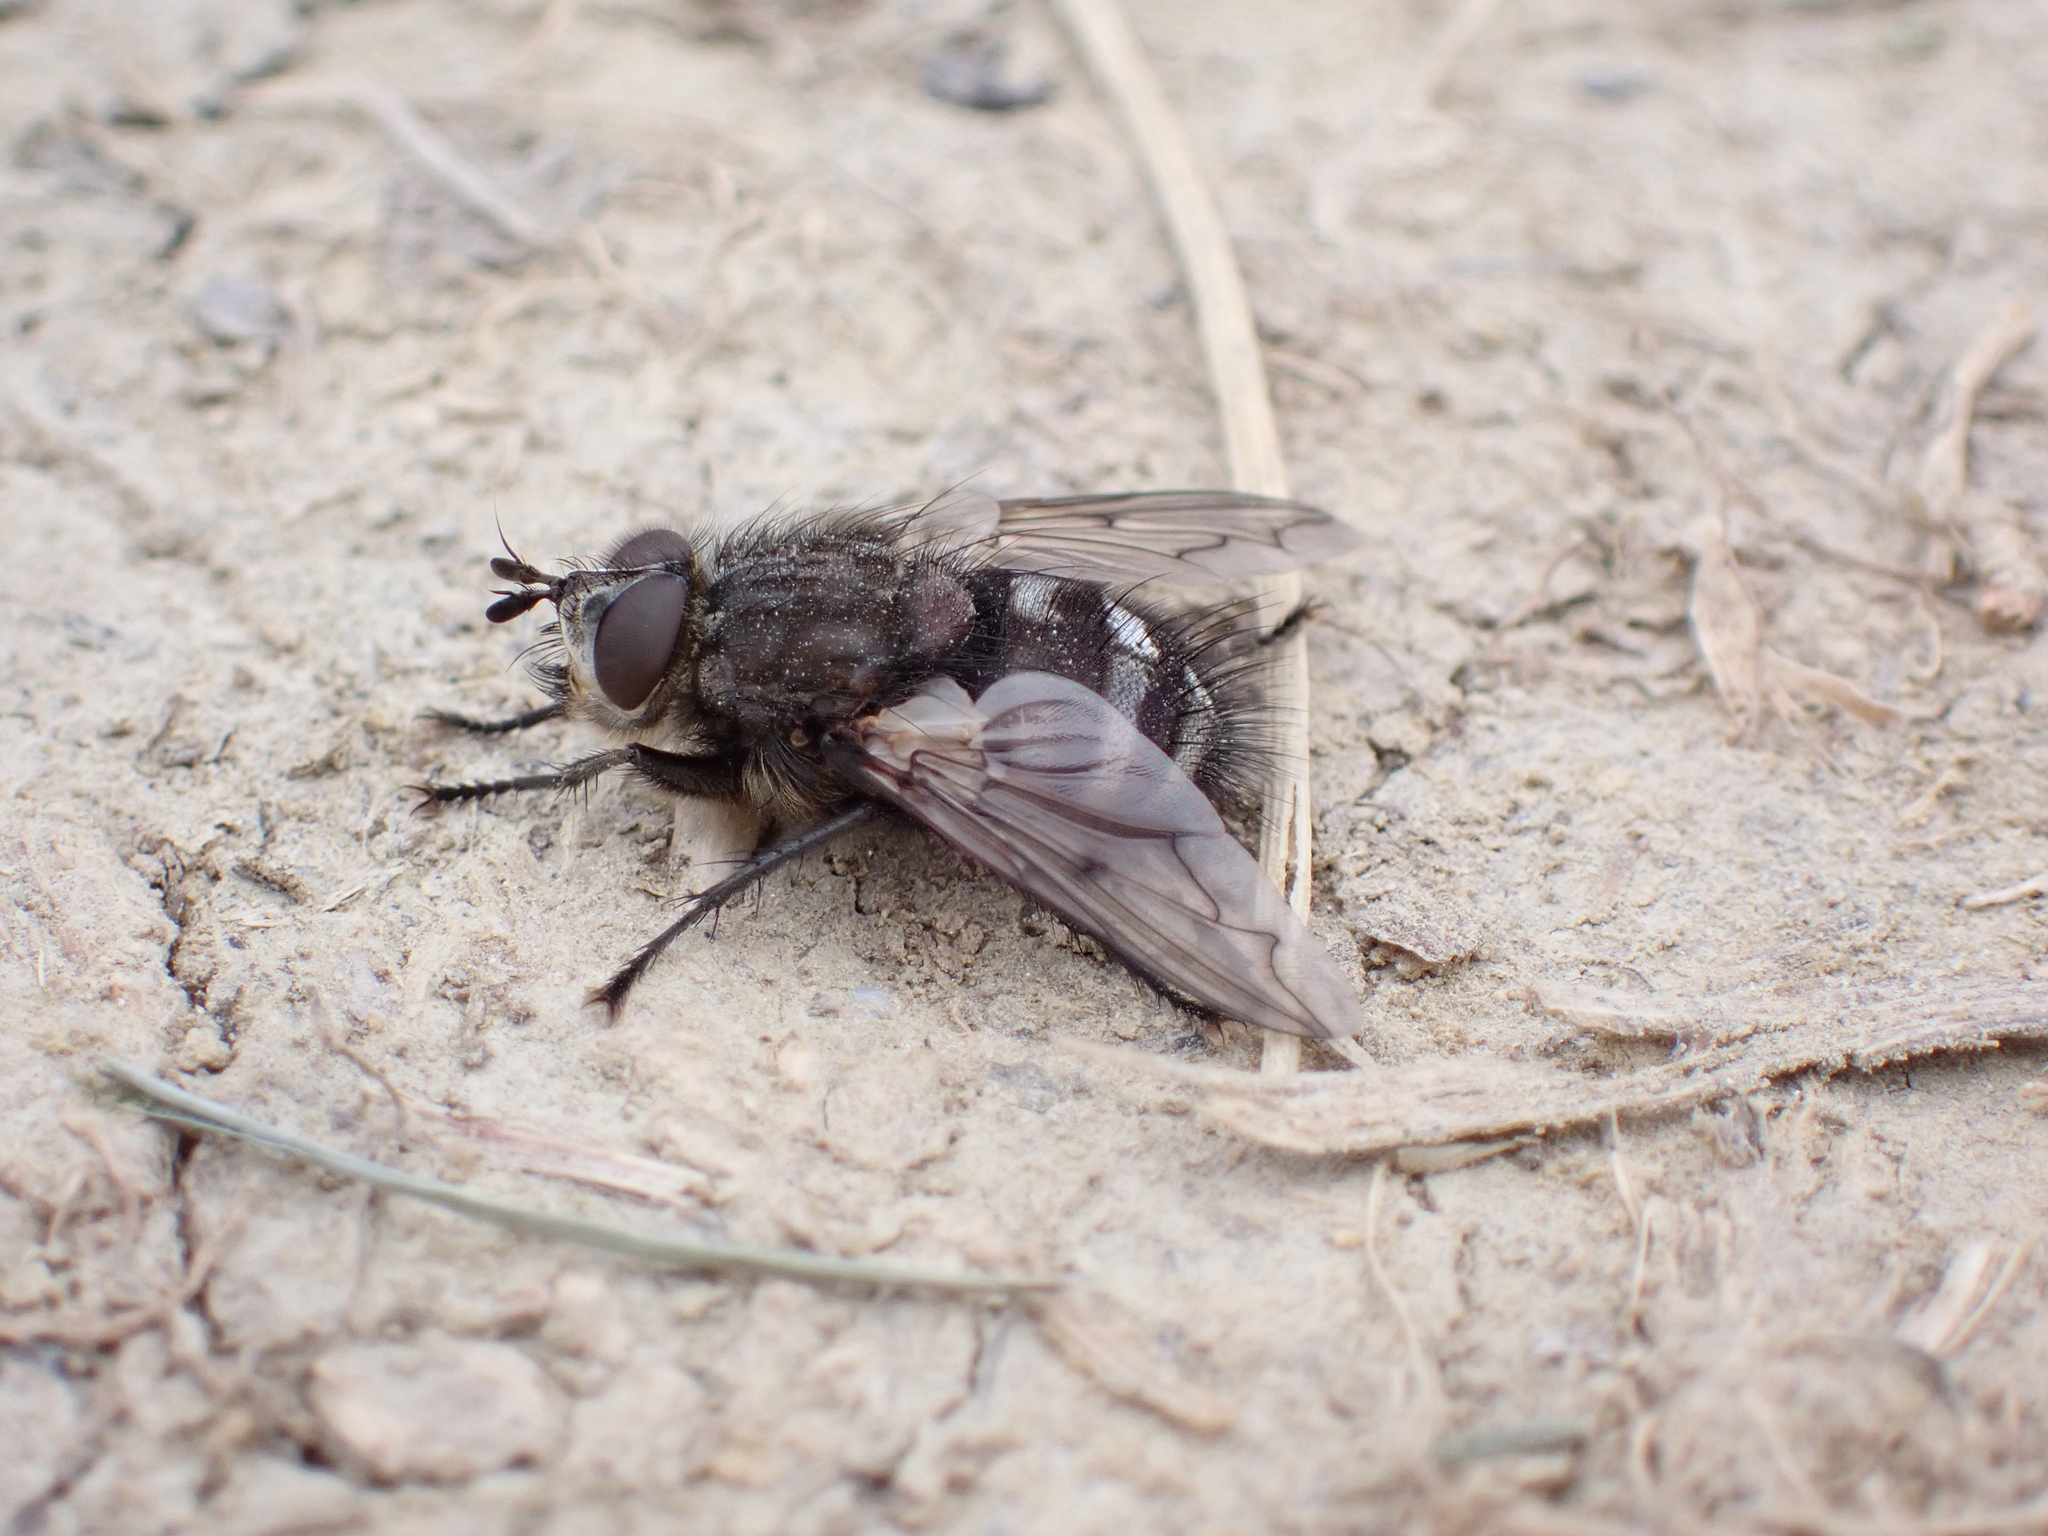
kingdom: Animalia
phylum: Arthropoda
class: Insecta
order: Diptera
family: Tachinidae
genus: Panzeria
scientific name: Panzeria puparum
